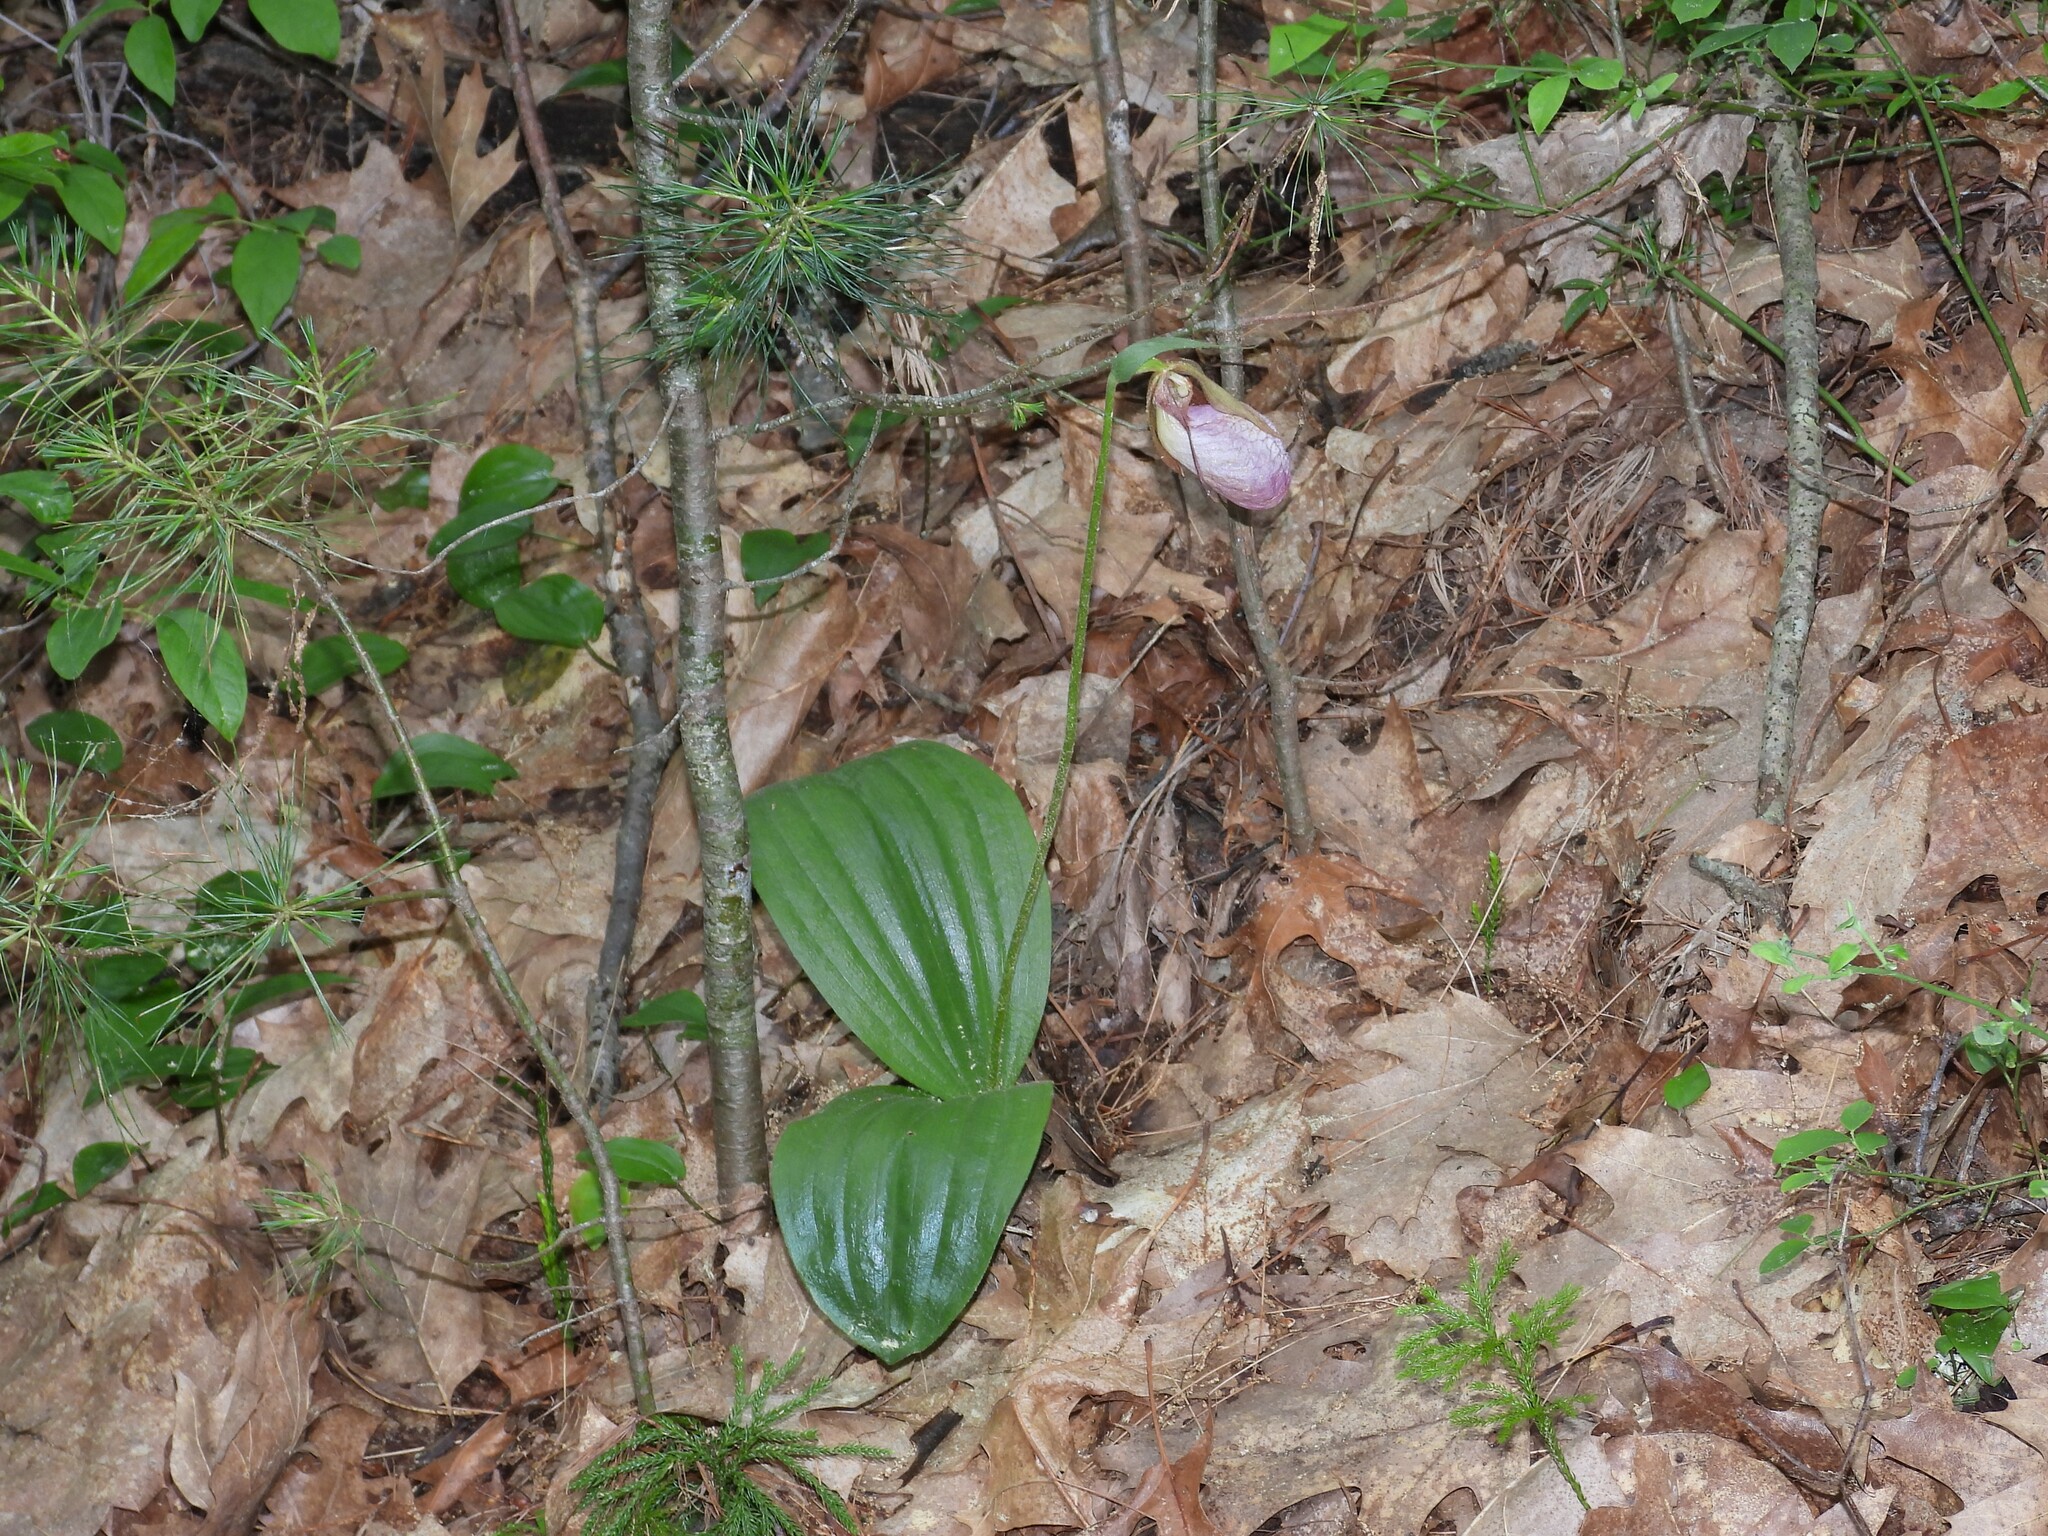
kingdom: Plantae
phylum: Tracheophyta
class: Liliopsida
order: Asparagales
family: Orchidaceae
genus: Cypripedium
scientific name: Cypripedium acaule
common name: Pink lady's-slipper
